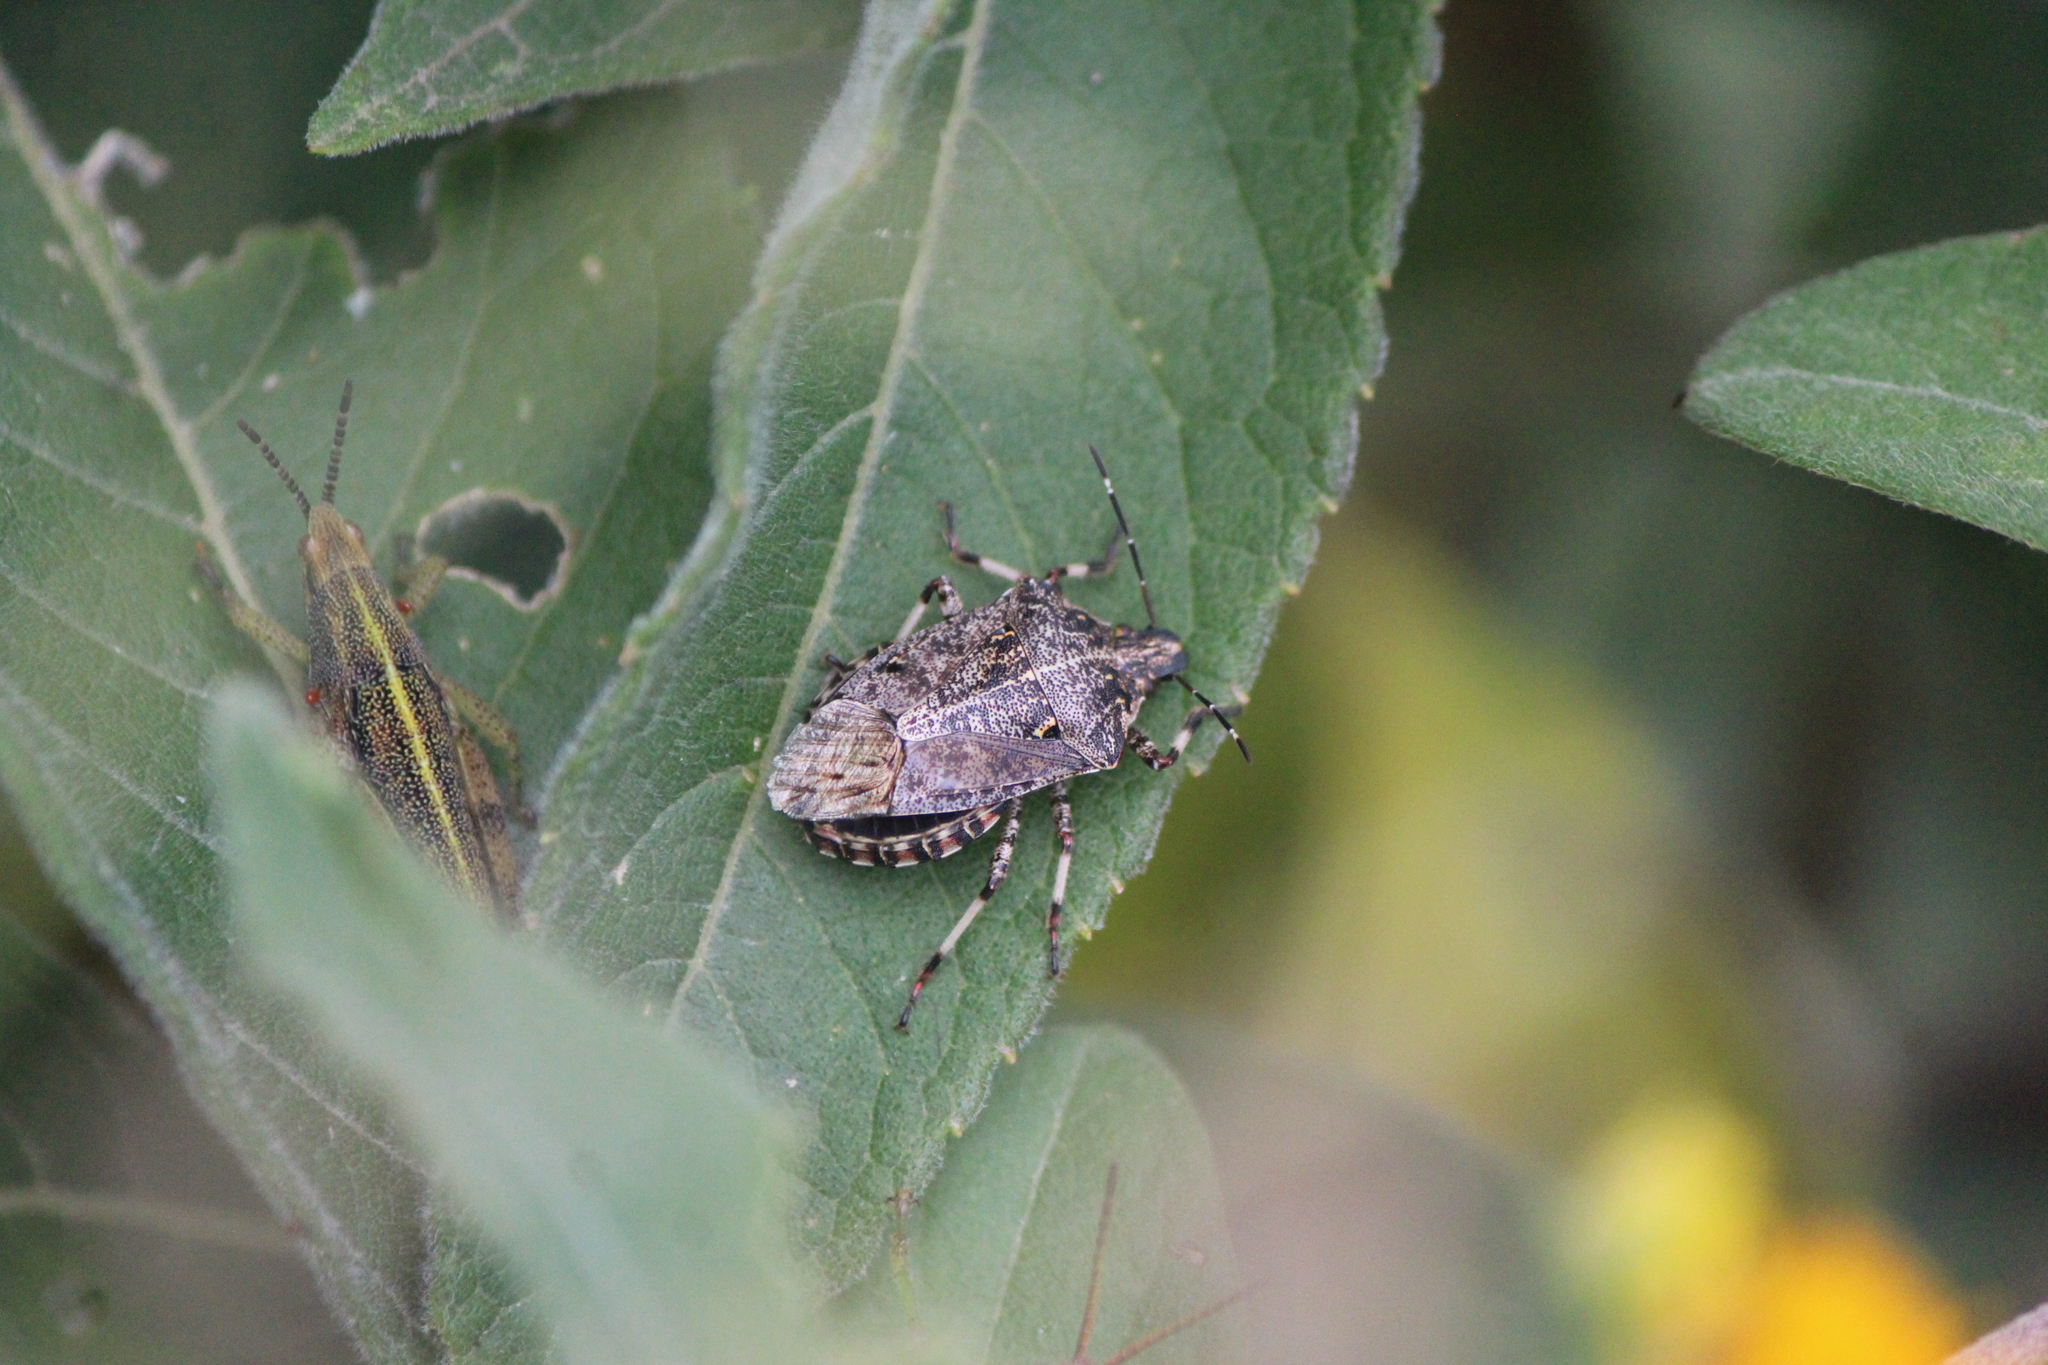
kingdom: Animalia
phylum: Arthropoda
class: Insecta
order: Hemiptera
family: Pentatomidae
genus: Apateticus
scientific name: Apateticus lineolatus
